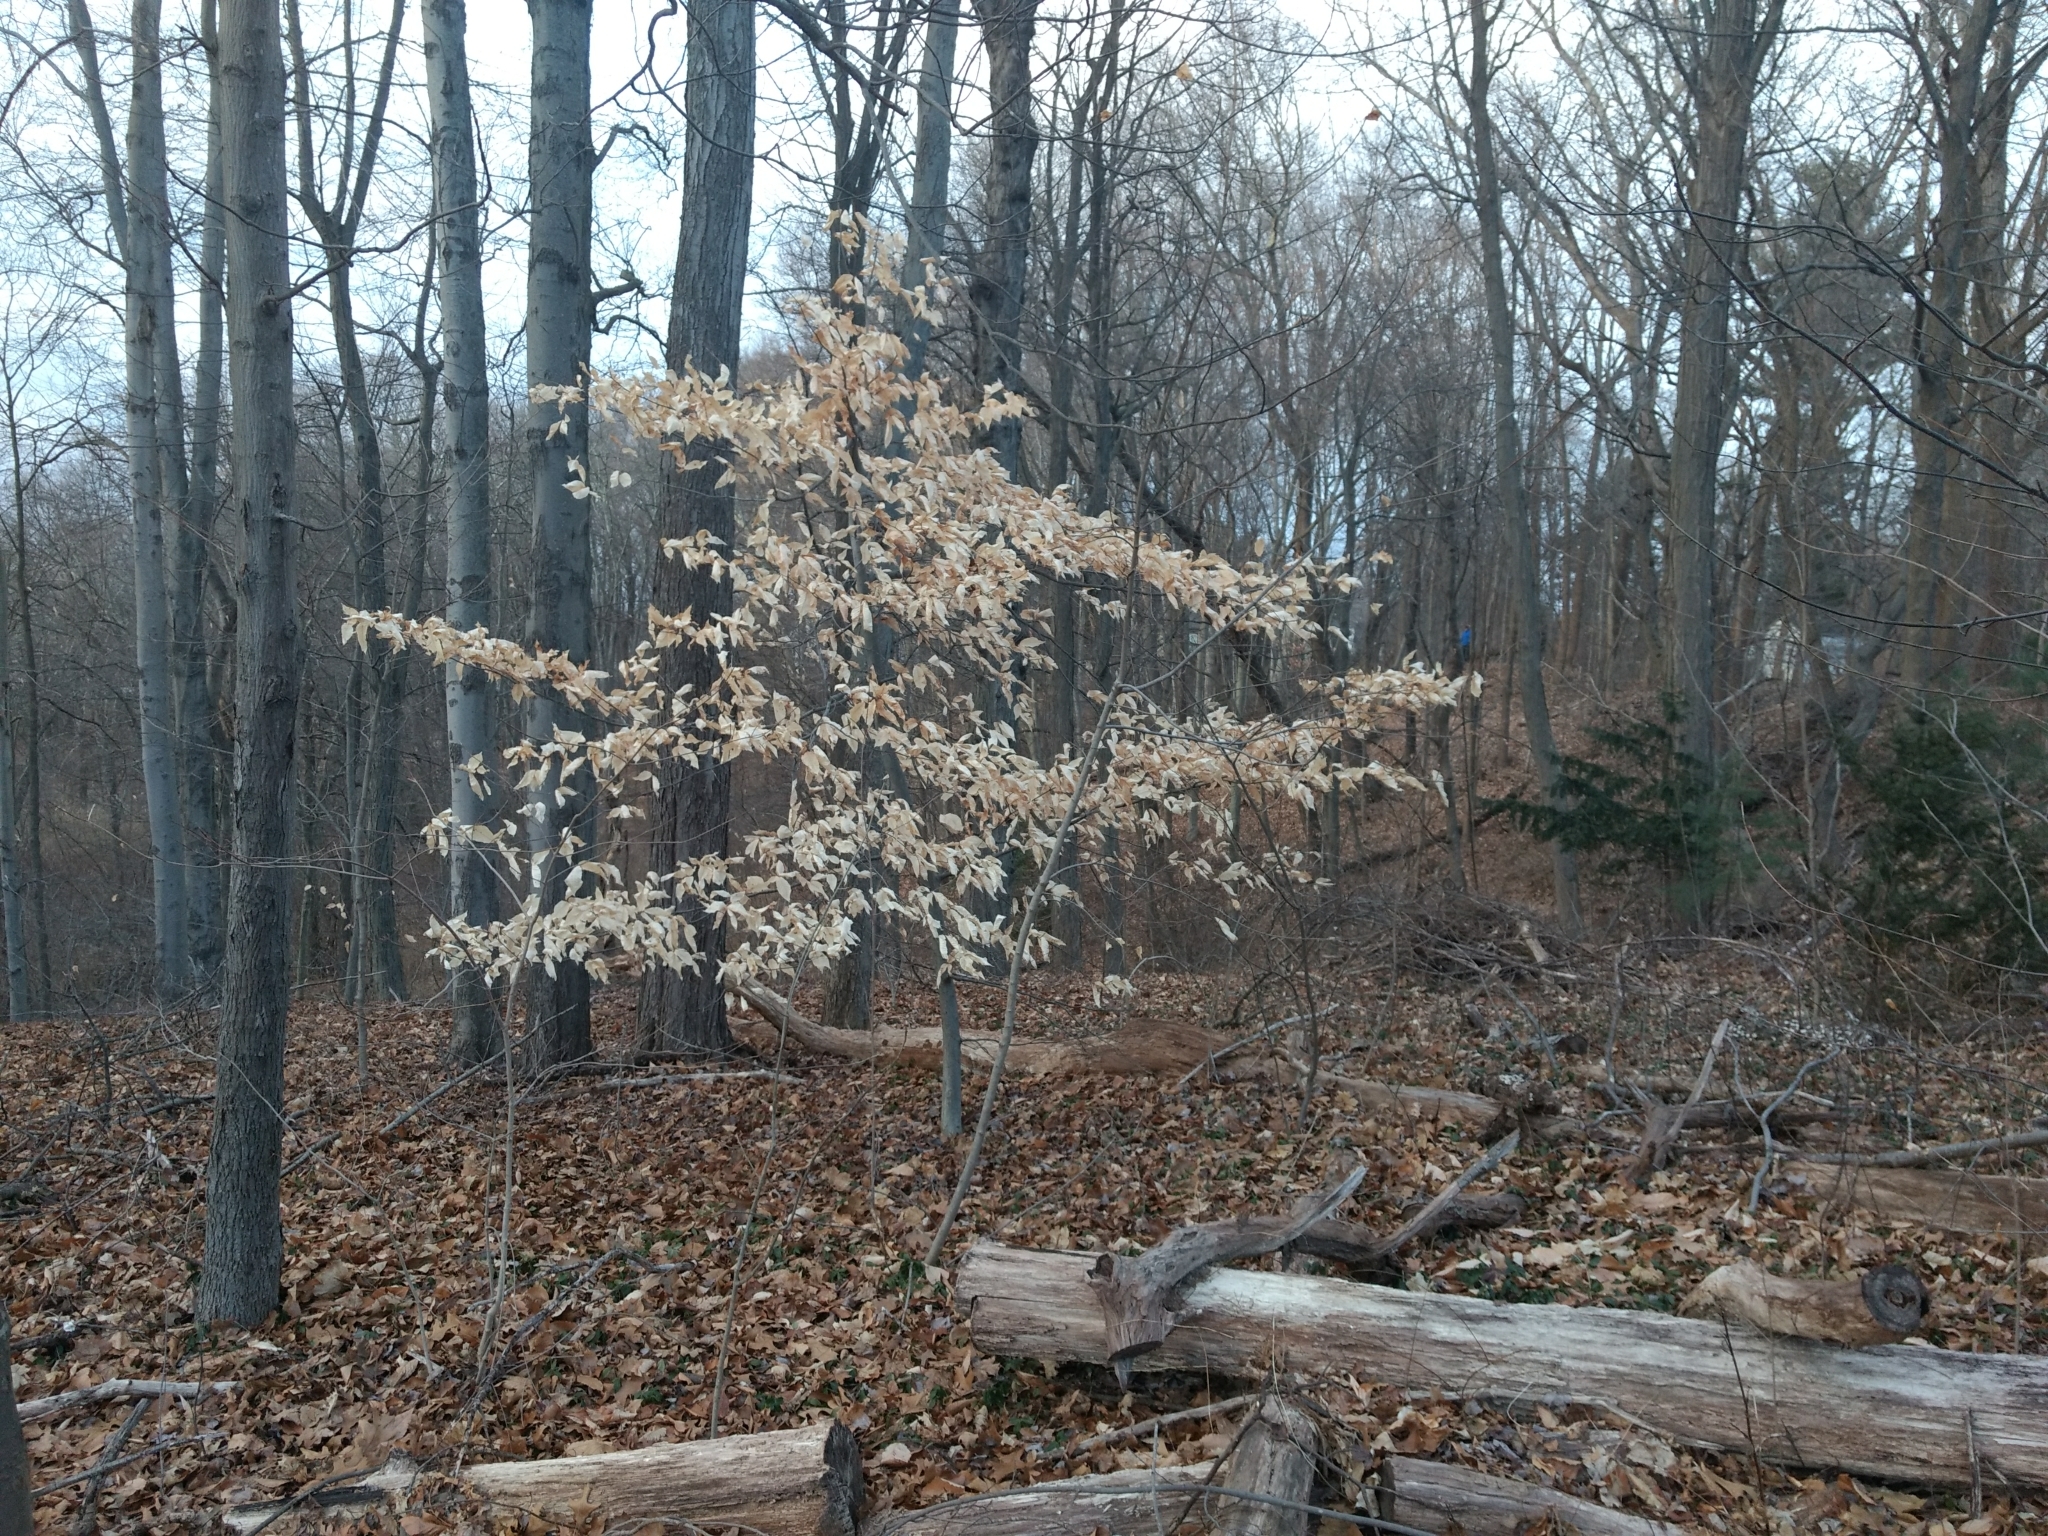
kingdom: Plantae
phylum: Tracheophyta
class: Magnoliopsida
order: Fagales
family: Fagaceae
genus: Fagus
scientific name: Fagus grandifolia
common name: American beech
